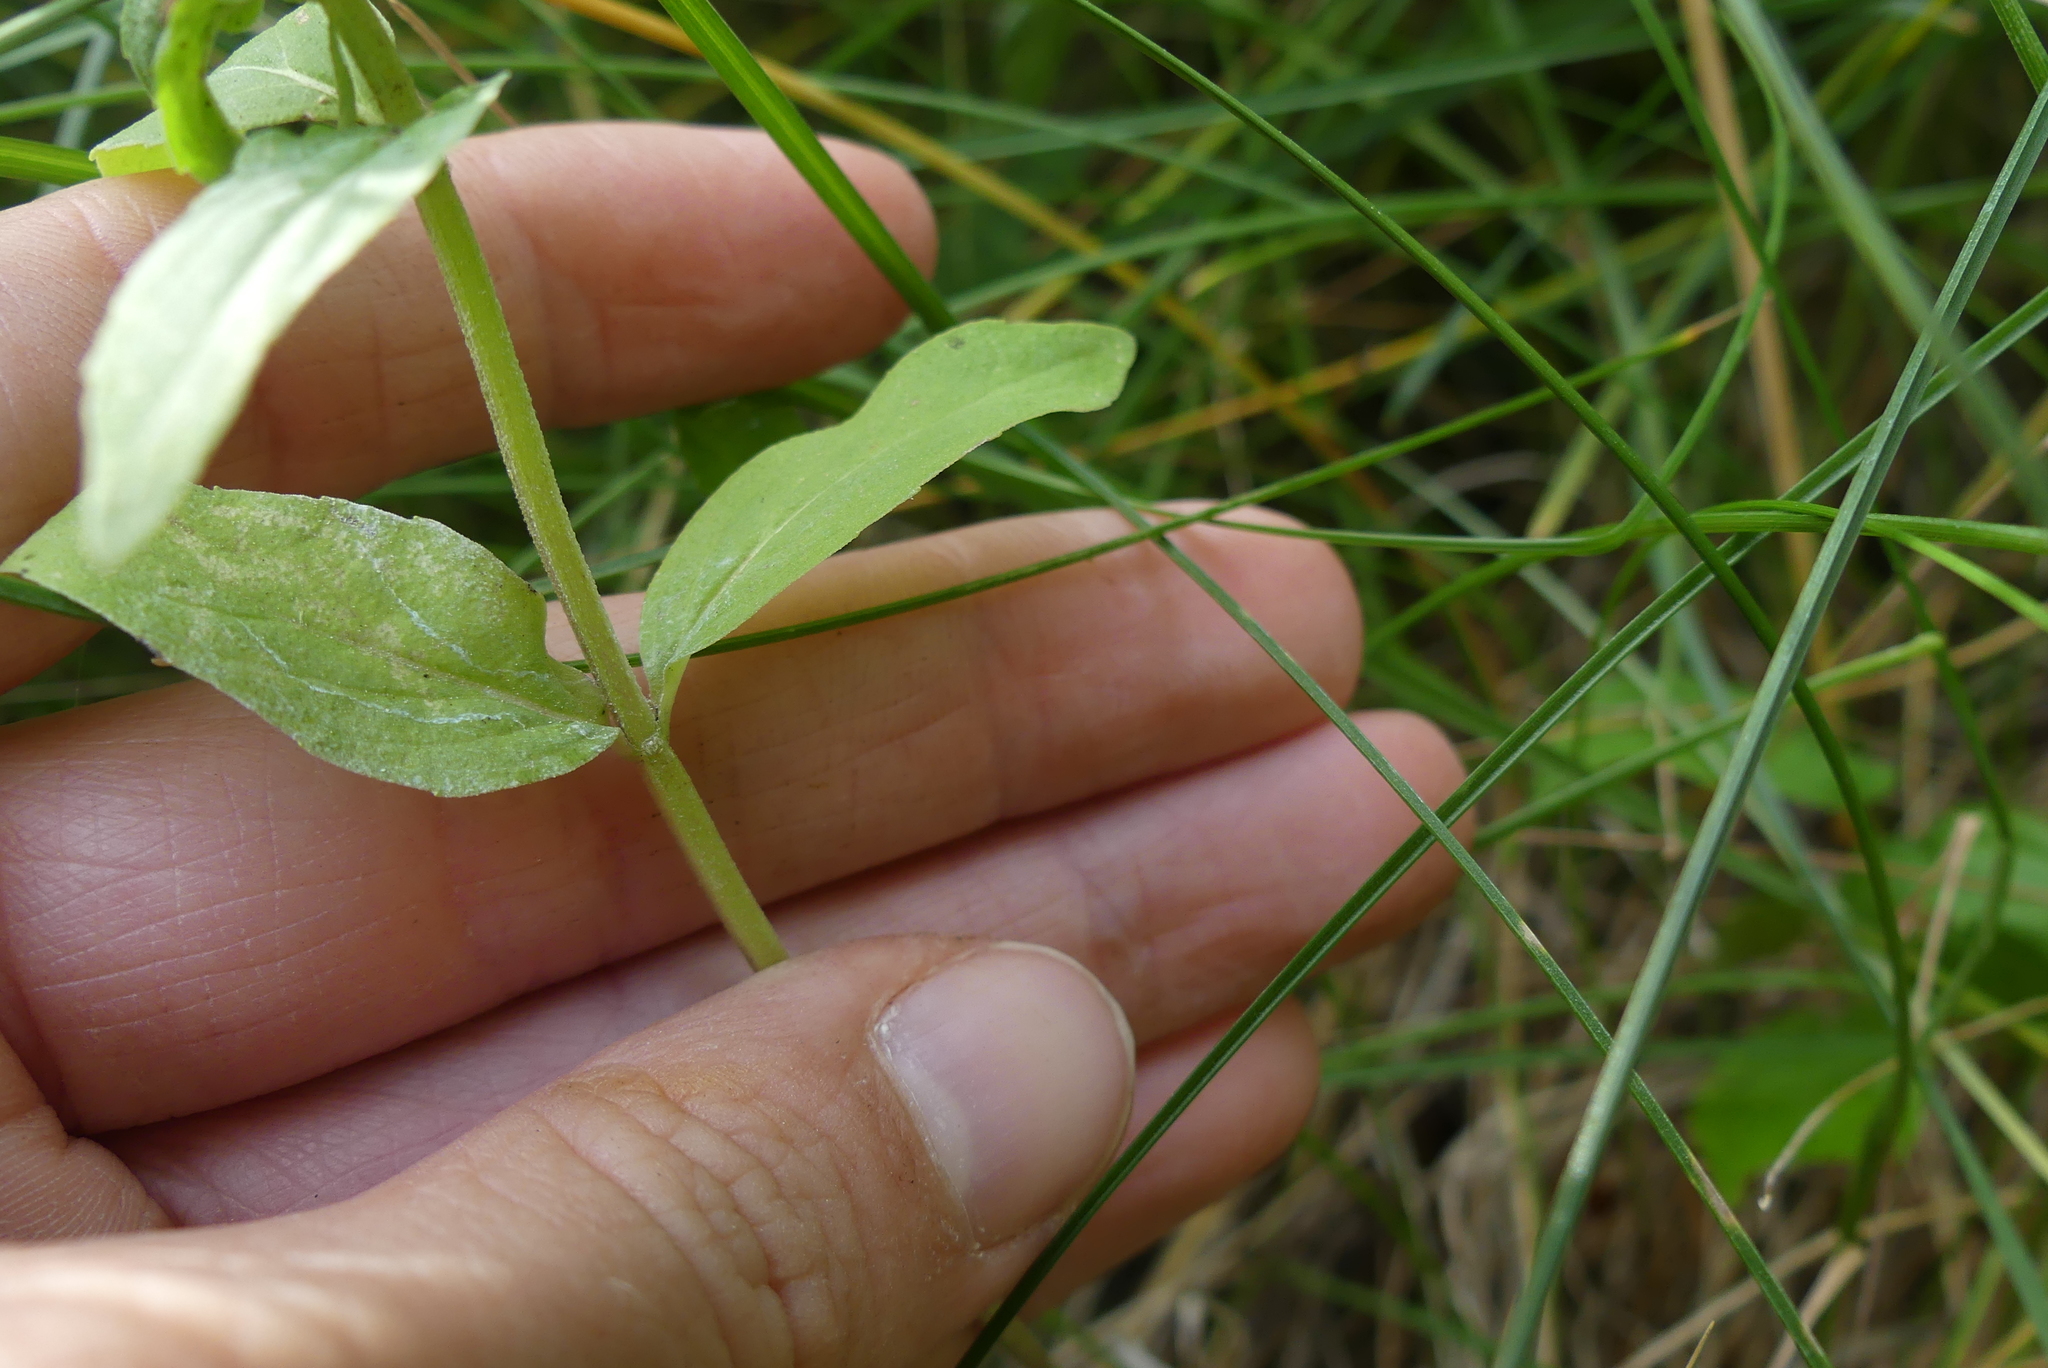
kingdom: Plantae
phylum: Tracheophyta
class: Magnoliopsida
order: Lamiales
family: Lamiaceae
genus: Mentha
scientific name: Mentha canadensis
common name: American corn mint
